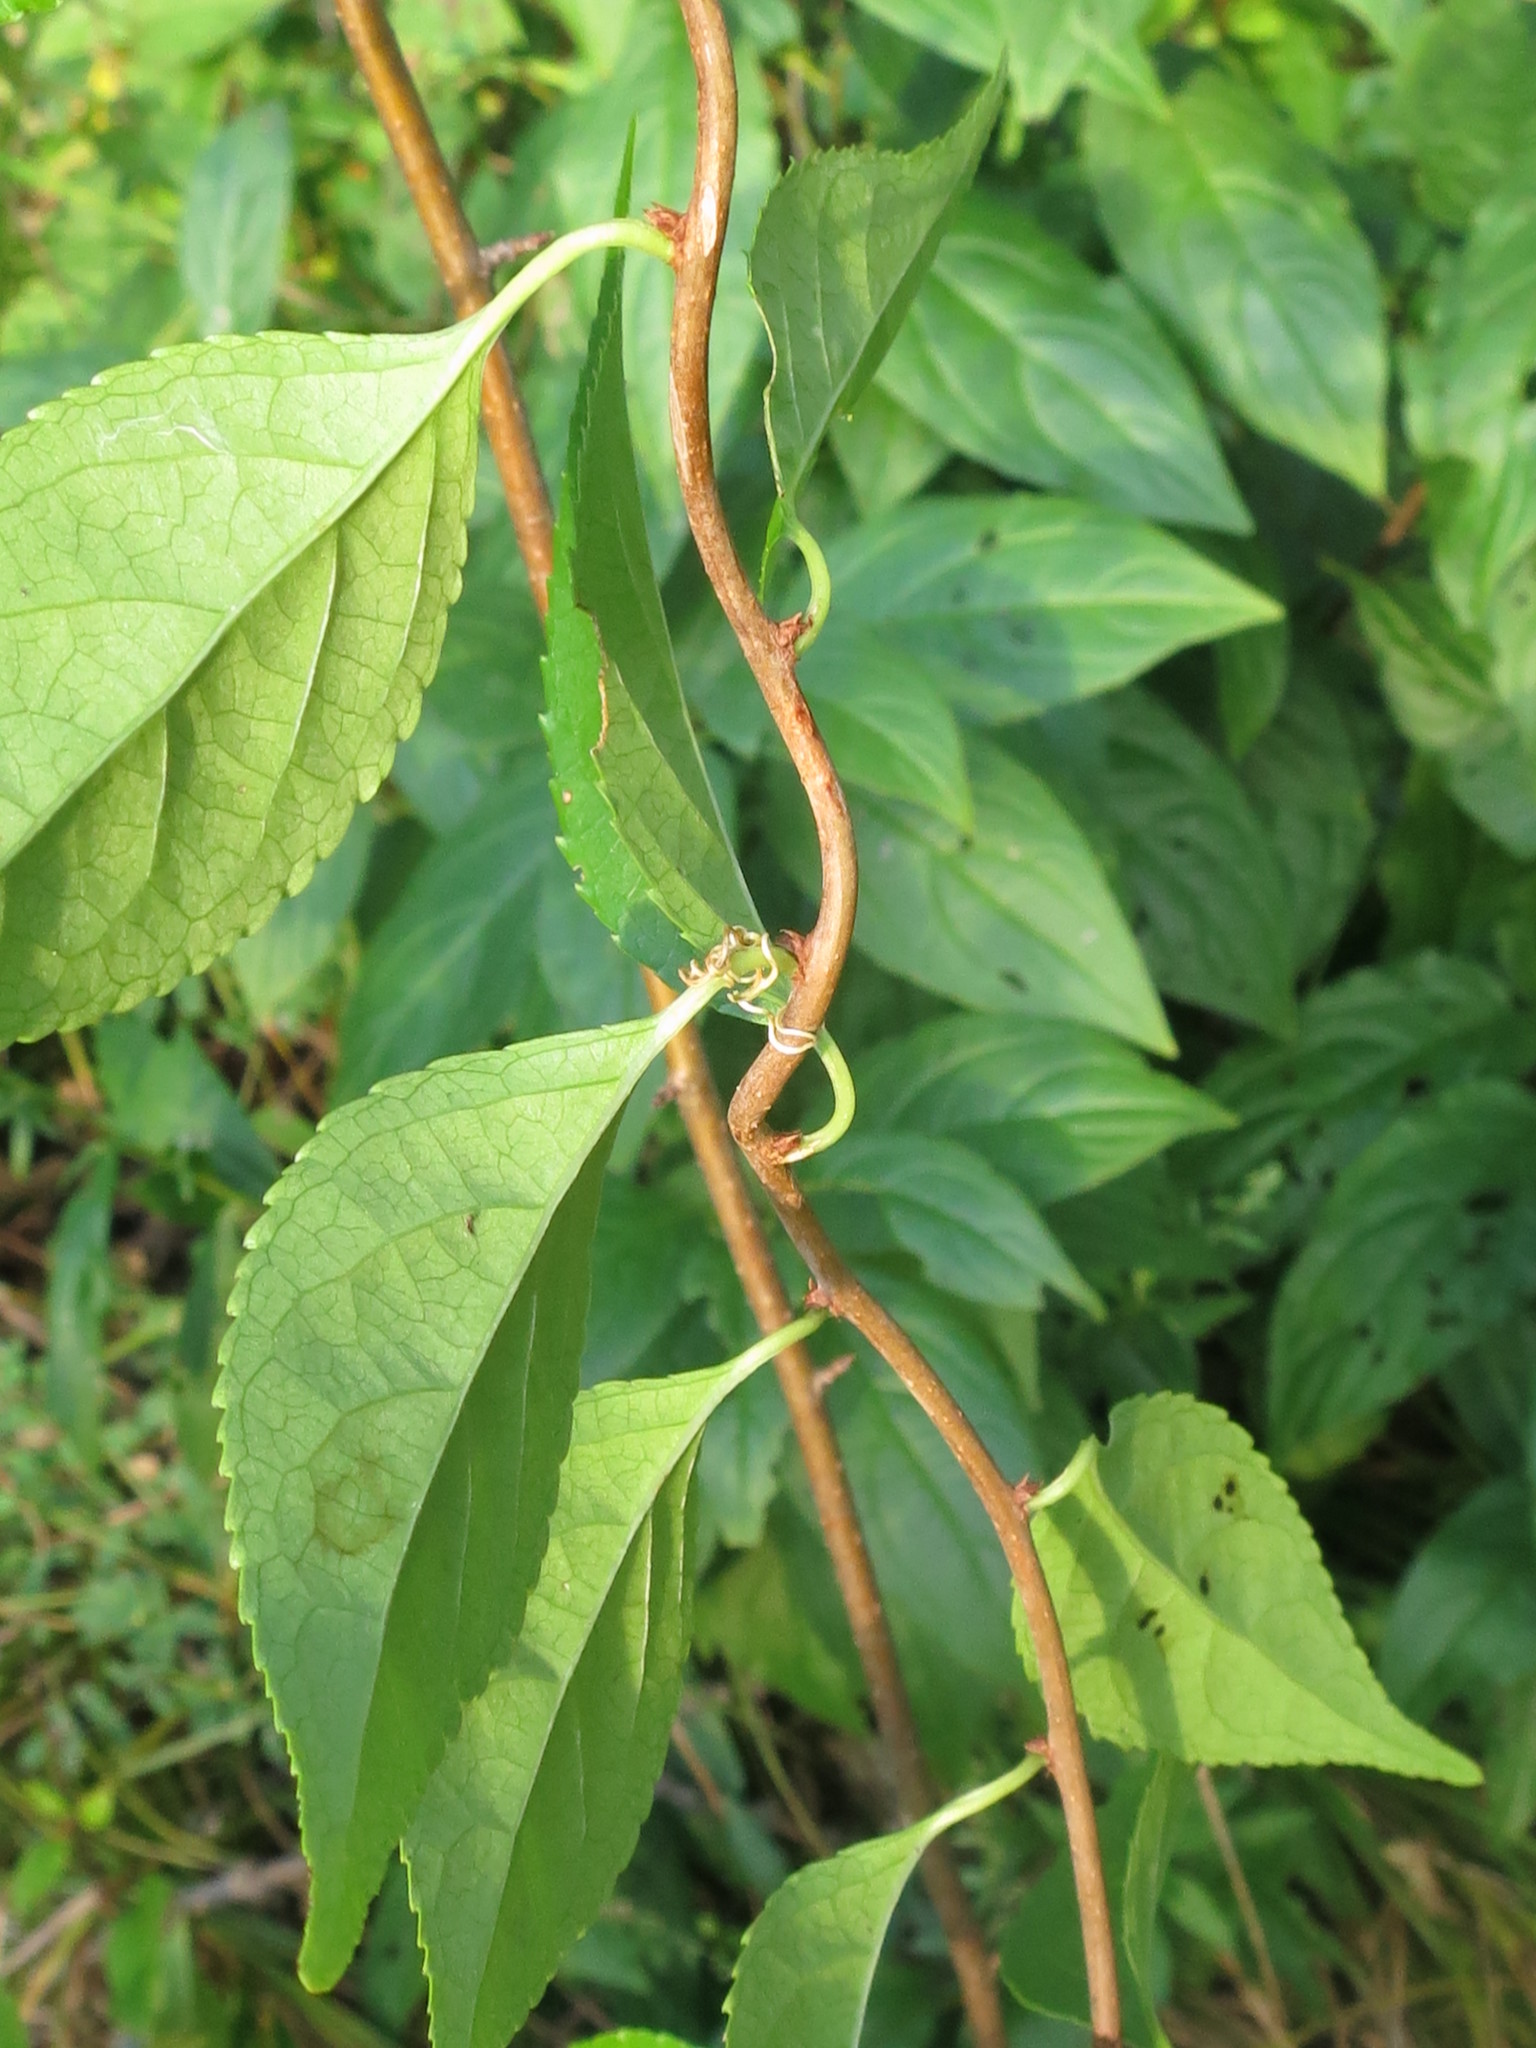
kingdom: Plantae
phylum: Tracheophyta
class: Magnoliopsida
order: Celastrales
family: Celastraceae
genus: Celastrus
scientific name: Celastrus orbiculatus
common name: Oriental bittersweet
